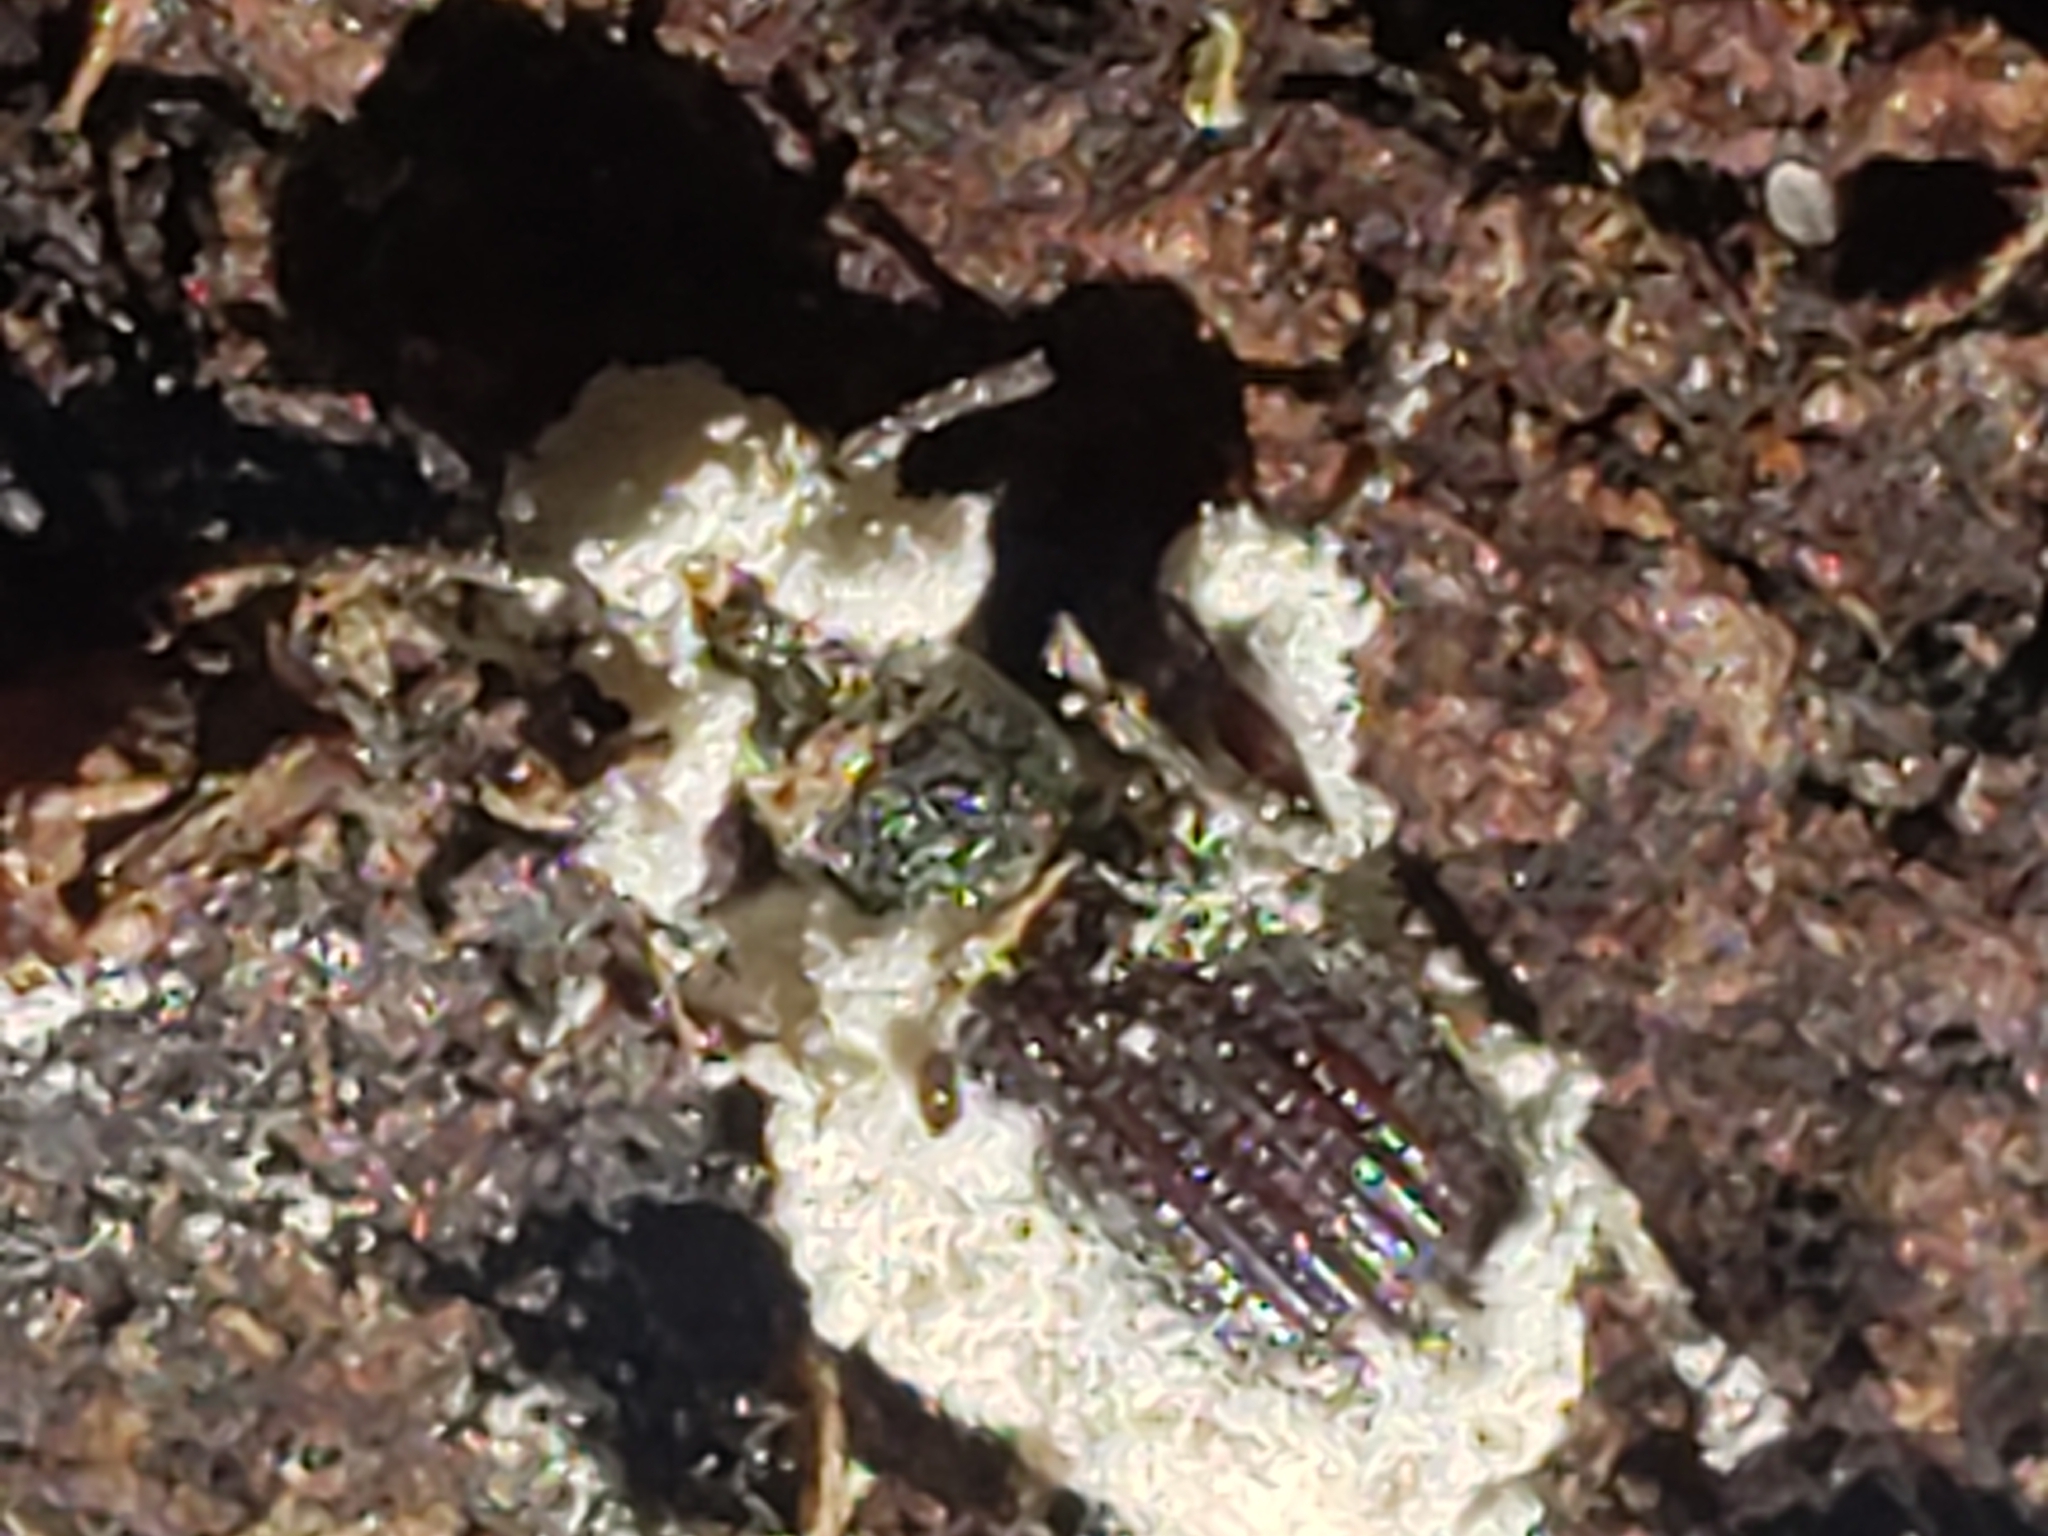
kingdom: Fungi
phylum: Ascomycota
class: Sordariomycetes
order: Hypocreales
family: Cordycipitaceae
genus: Beauveria
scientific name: Beauveria bassiana
